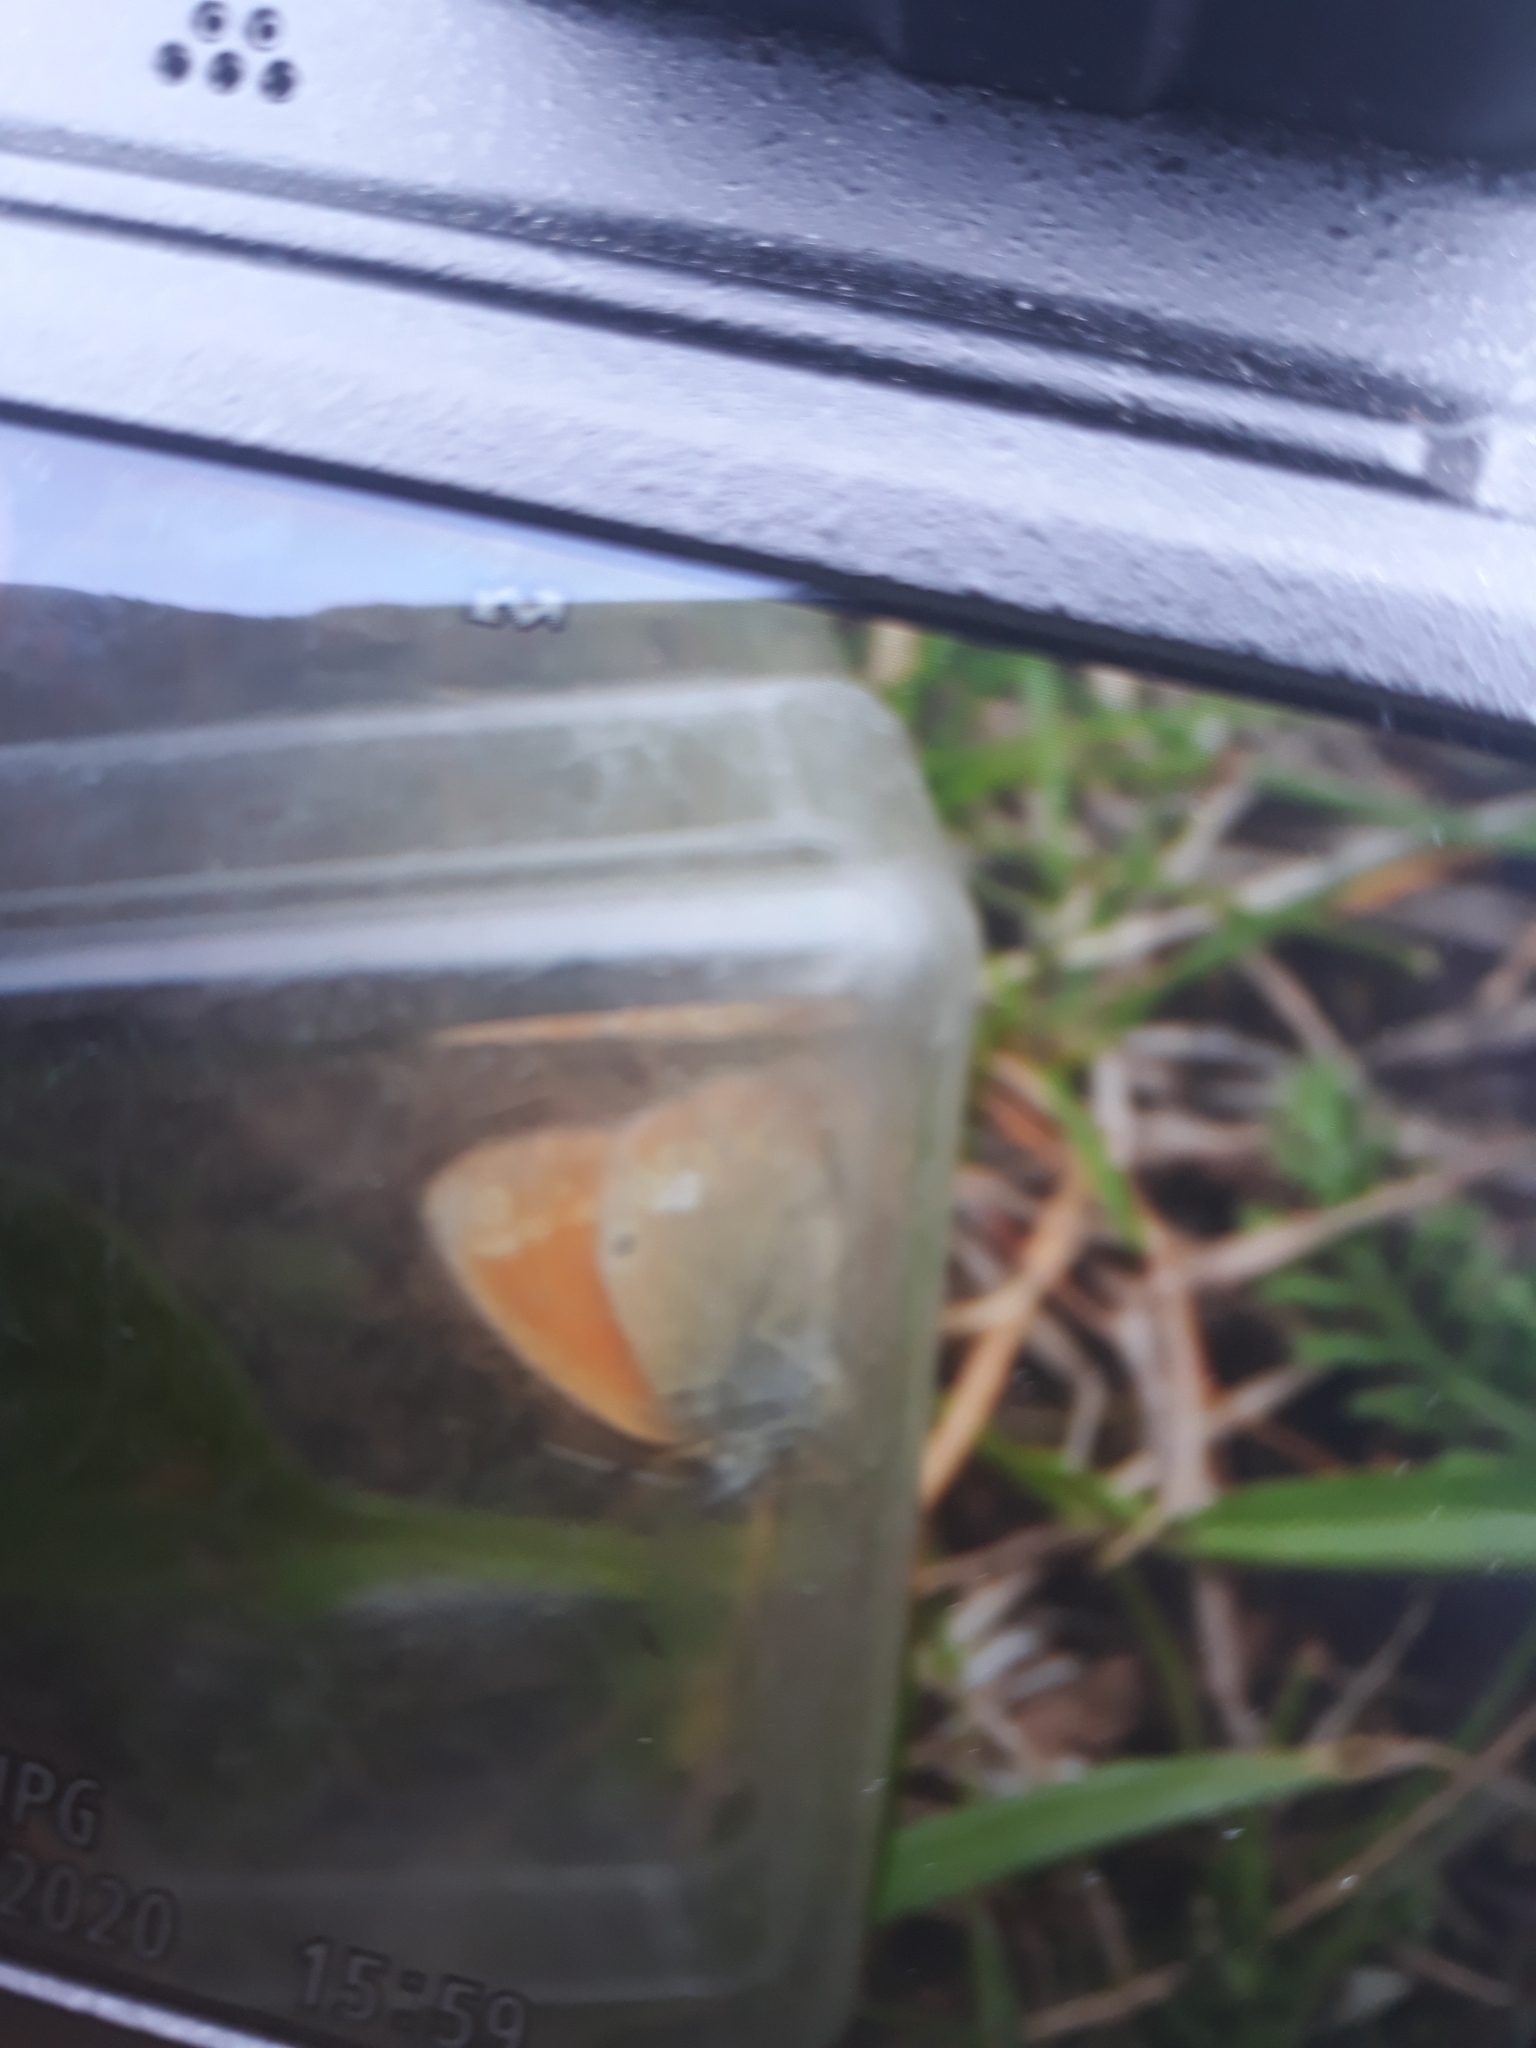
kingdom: Animalia
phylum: Arthropoda
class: Insecta
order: Lepidoptera
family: Nymphalidae
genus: Coenonympha
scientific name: Coenonympha iphis
